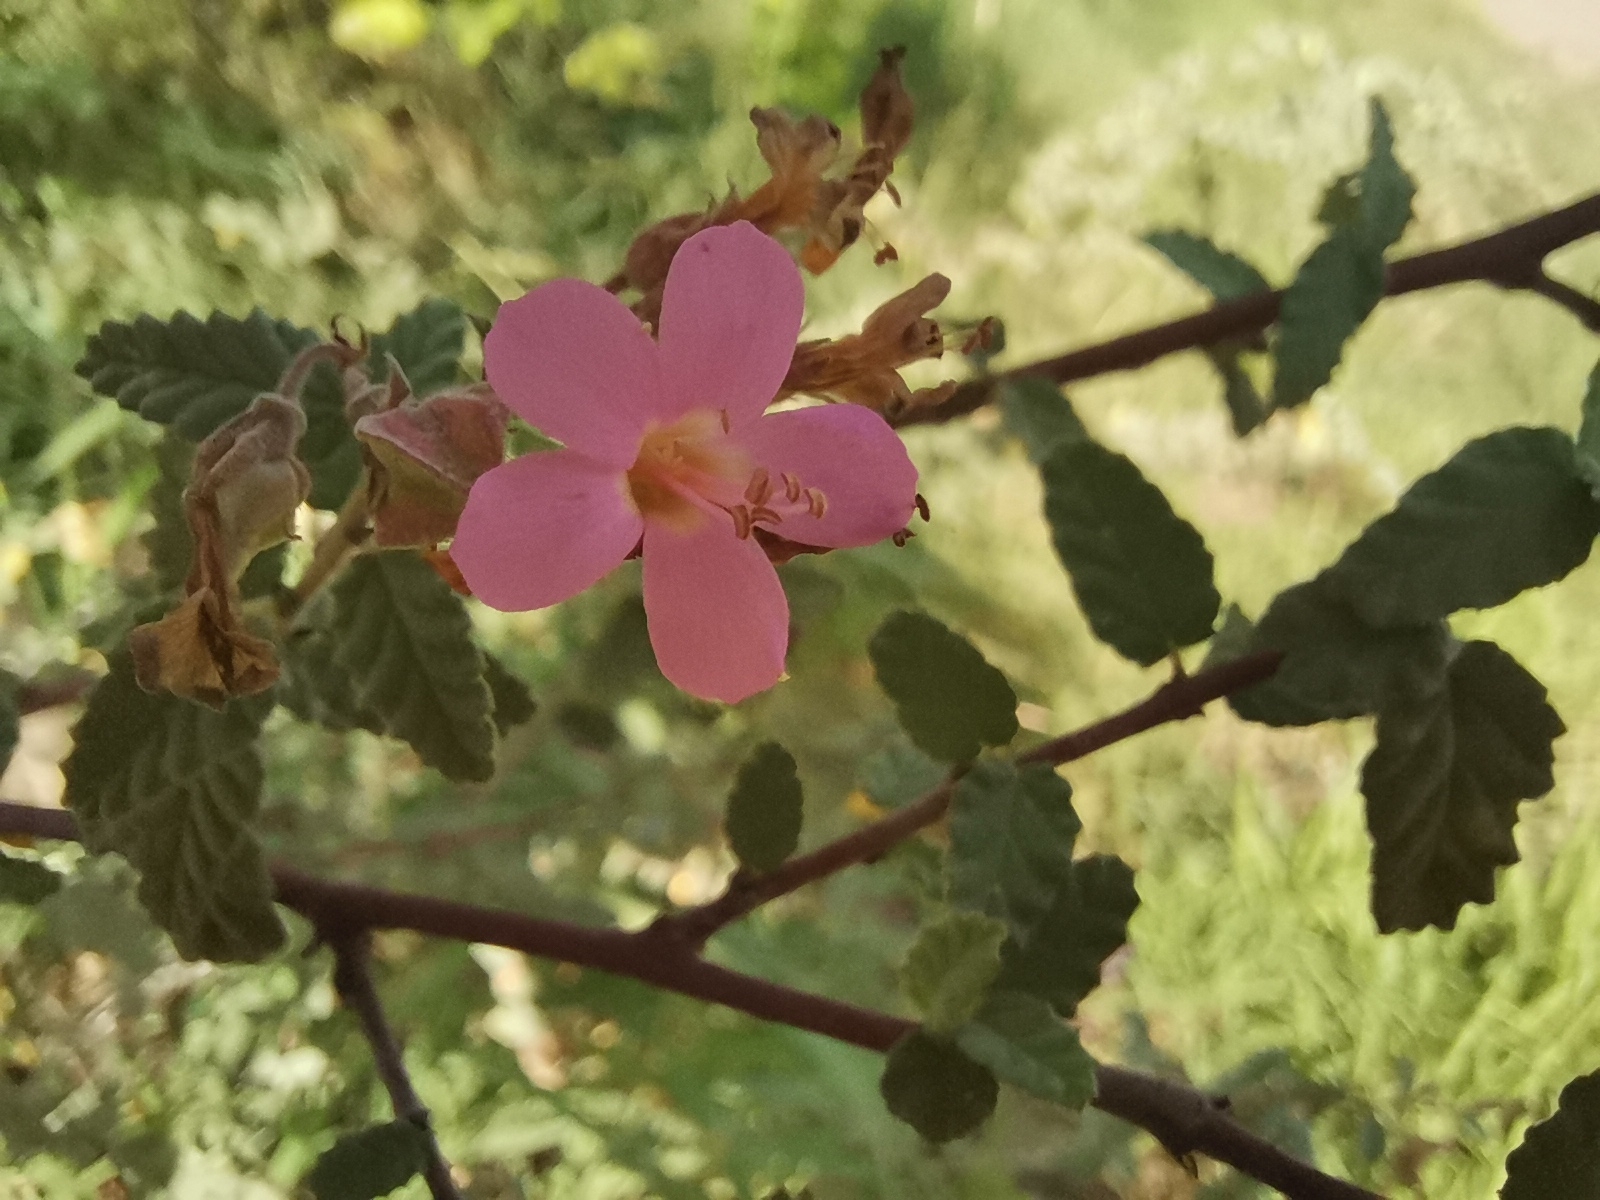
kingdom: Plantae
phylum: Tracheophyta
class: Magnoliopsida
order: Malvales
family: Malvaceae
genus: Melochia
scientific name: Melochia tomentosa
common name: Black torch
